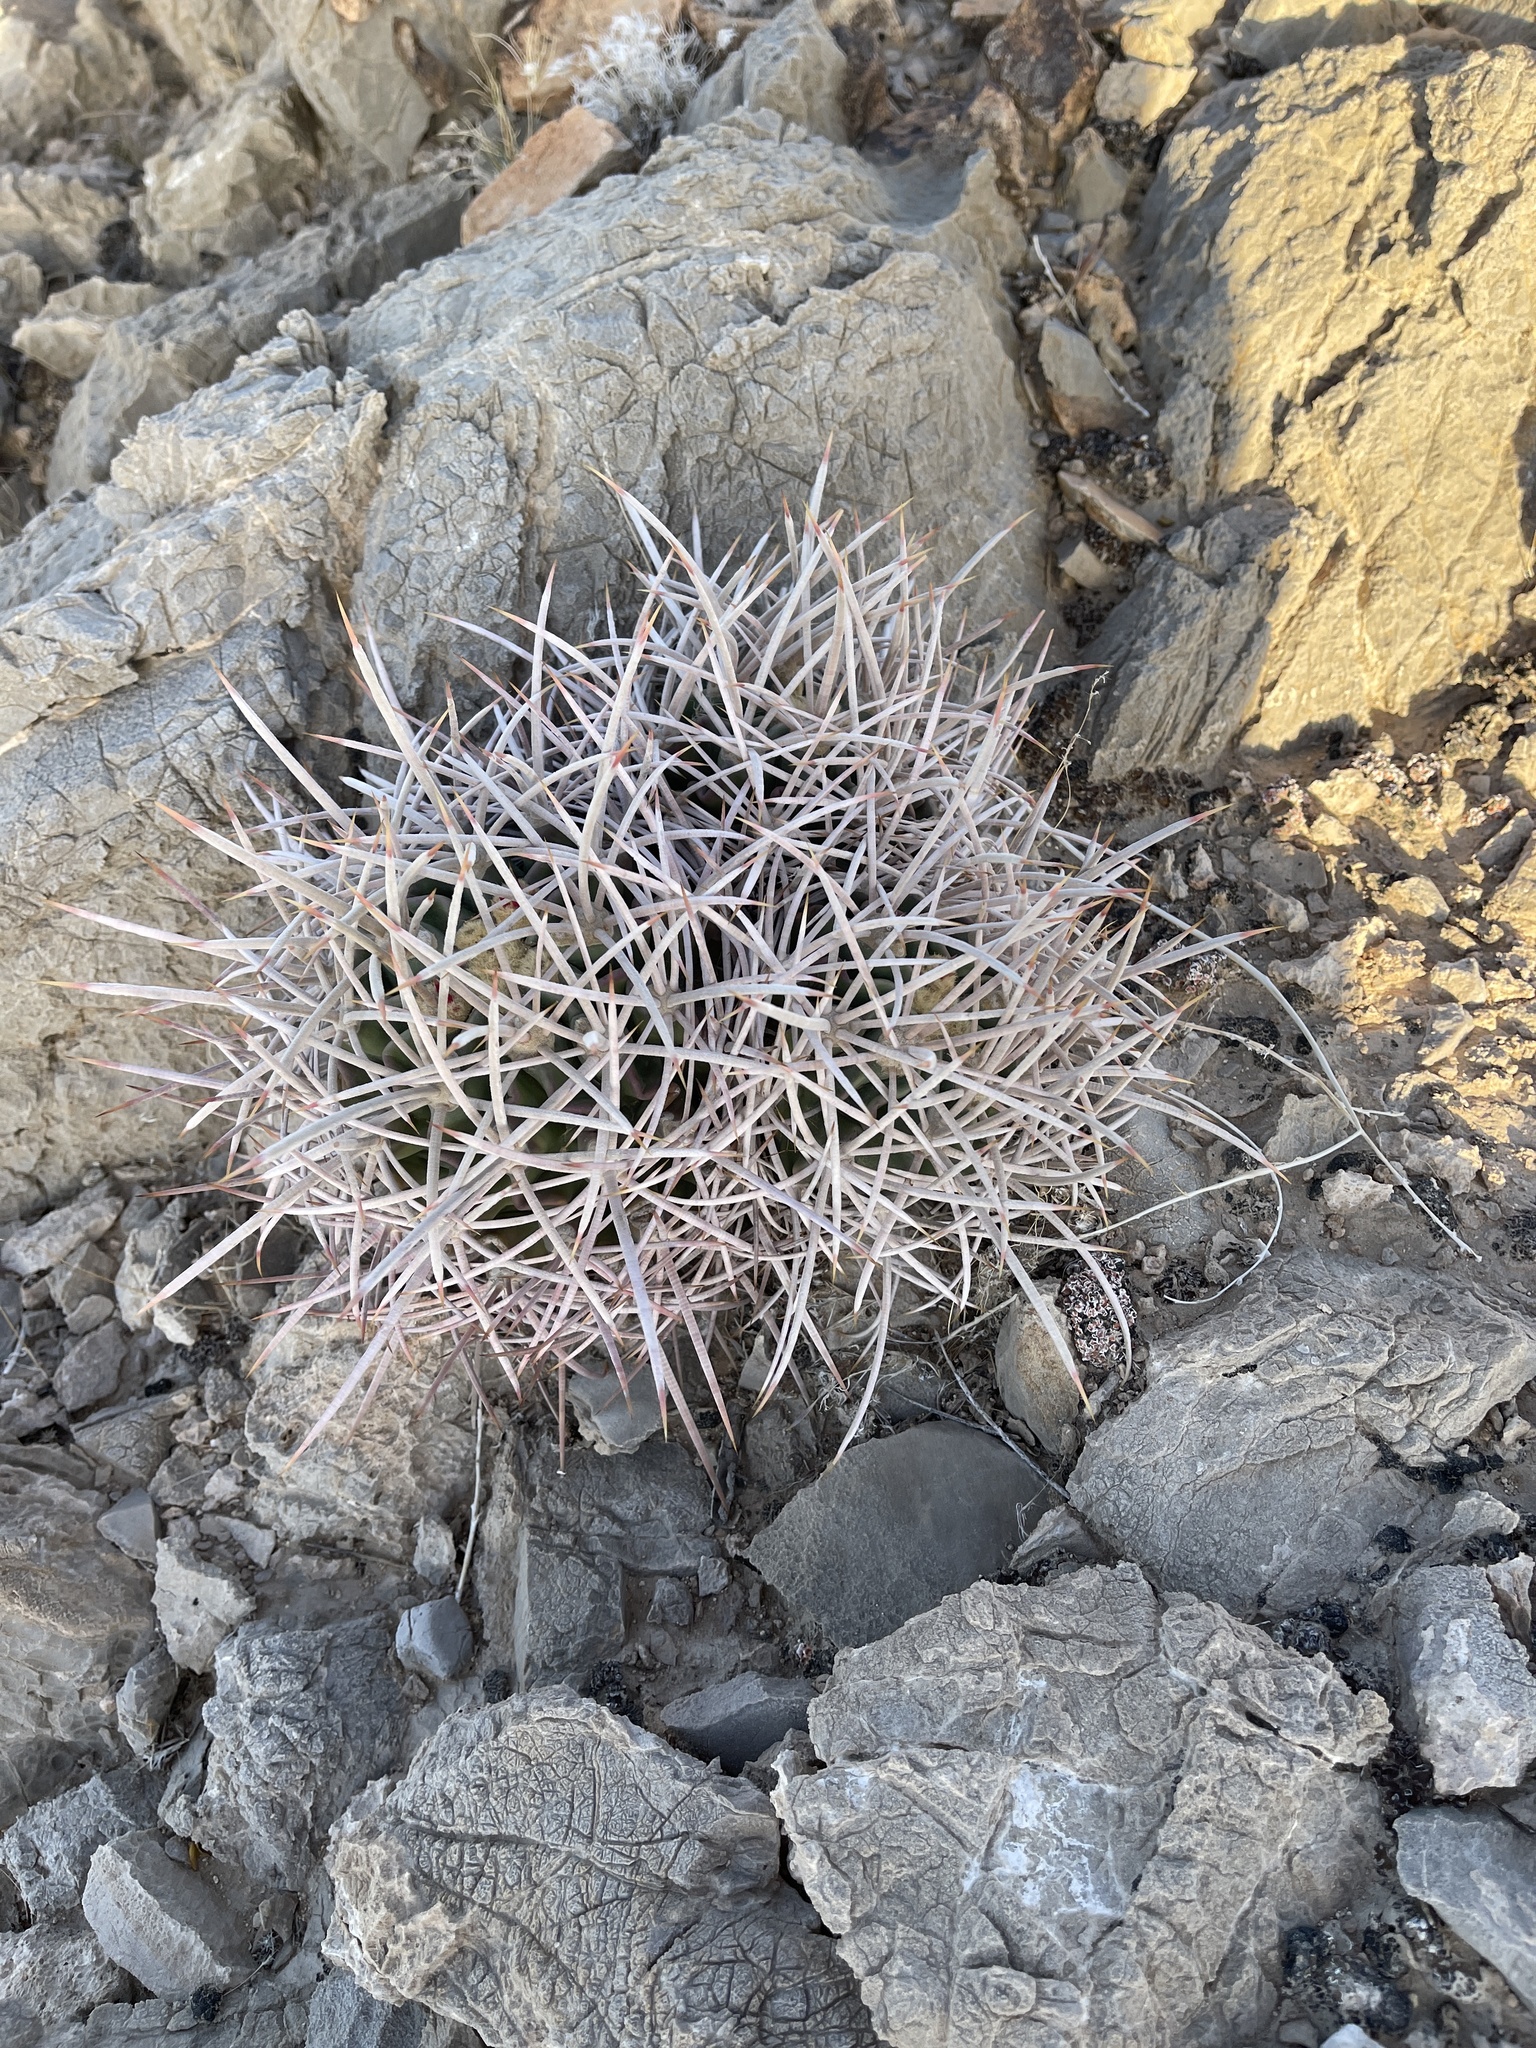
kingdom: Plantae
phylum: Tracheophyta
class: Magnoliopsida
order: Caryophyllales
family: Cactaceae
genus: Echinocactus
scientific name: Echinocactus polycephalus
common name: Cottontop cactus
